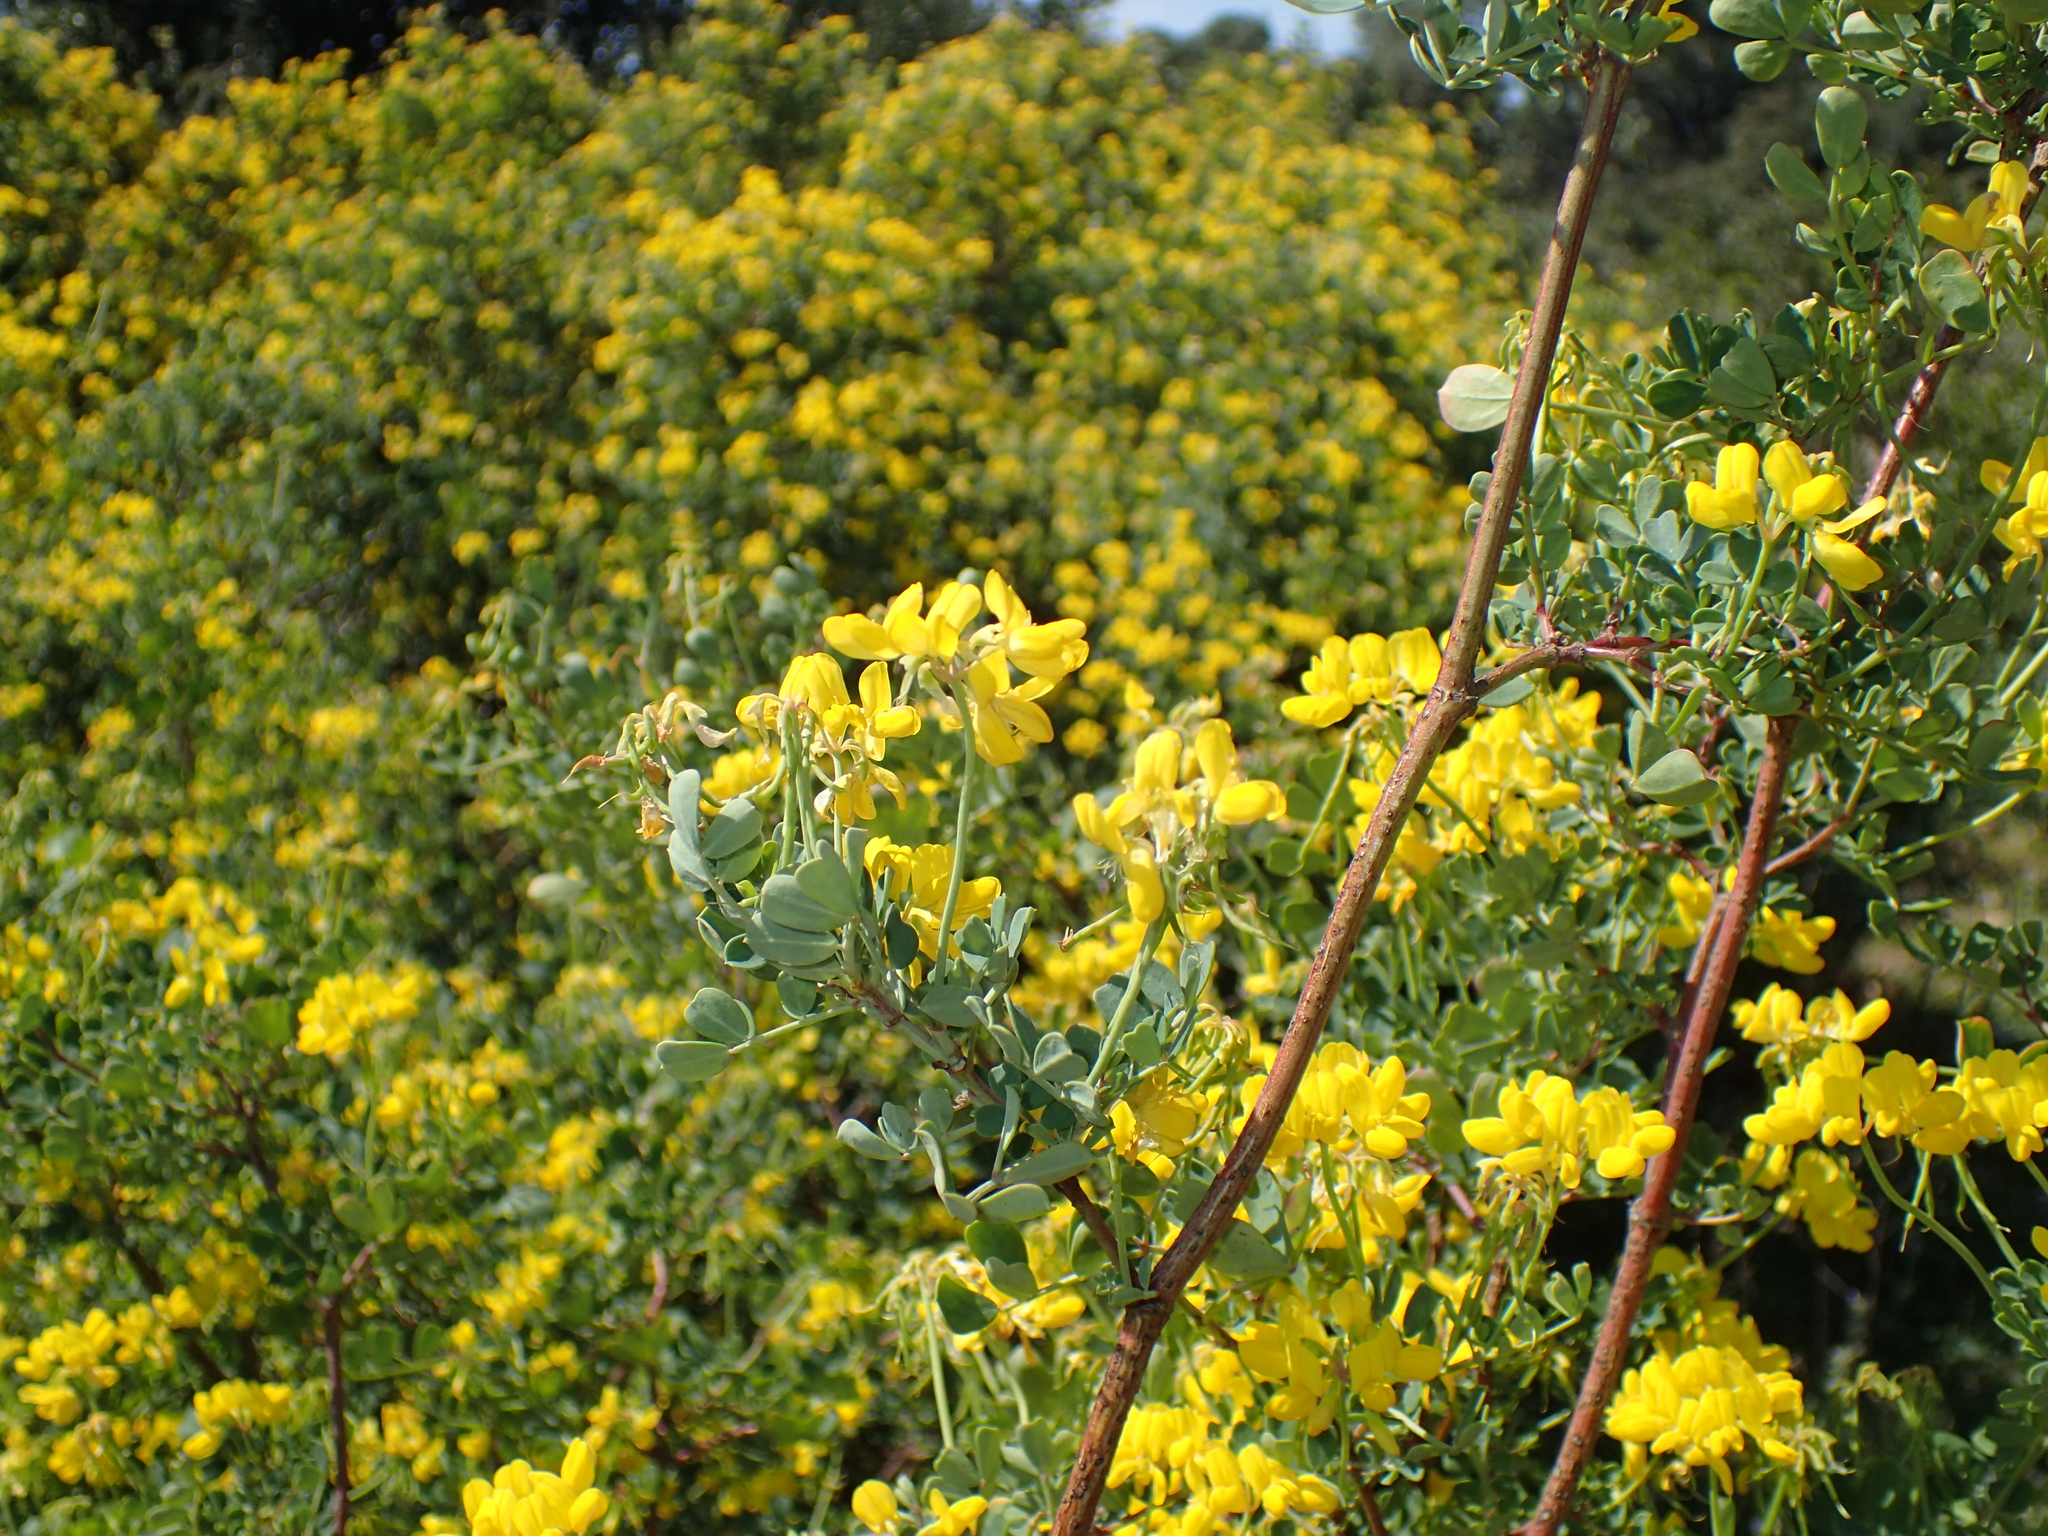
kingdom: Plantae
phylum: Tracheophyta
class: Magnoliopsida
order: Fabales
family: Fabaceae
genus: Coronilla
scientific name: Coronilla valentina
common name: Shrubby scorpion-vetch
